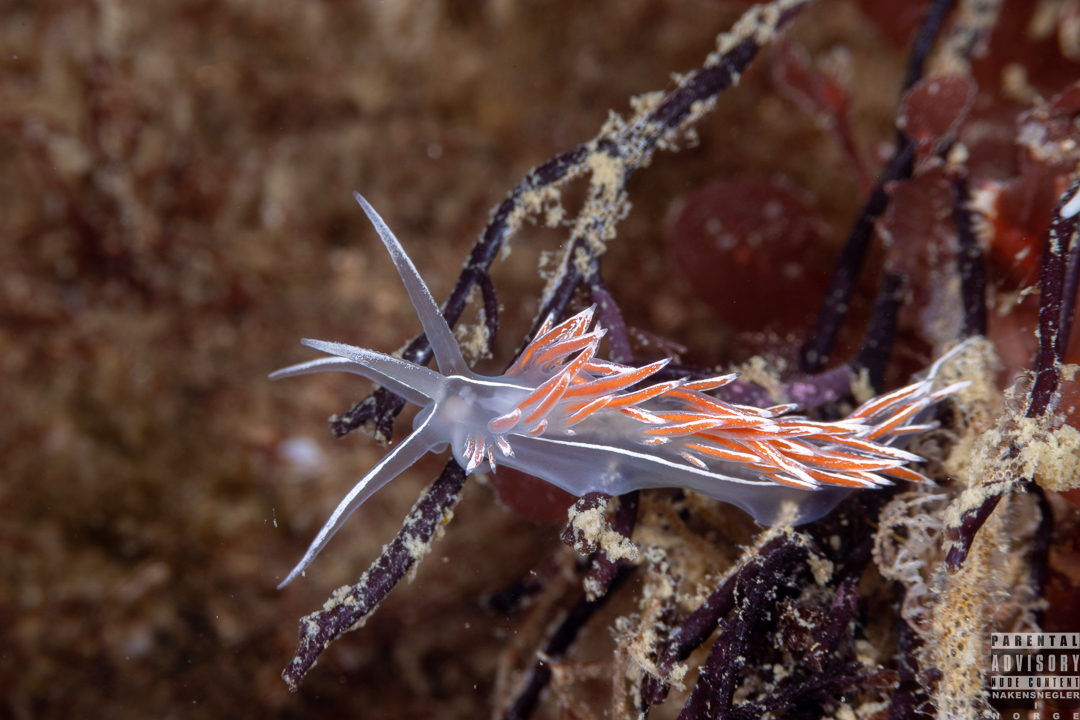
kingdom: Animalia
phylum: Mollusca
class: Gastropoda
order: Nudibranchia
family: Coryphellidae
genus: Coryphella
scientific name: Coryphella lineata
